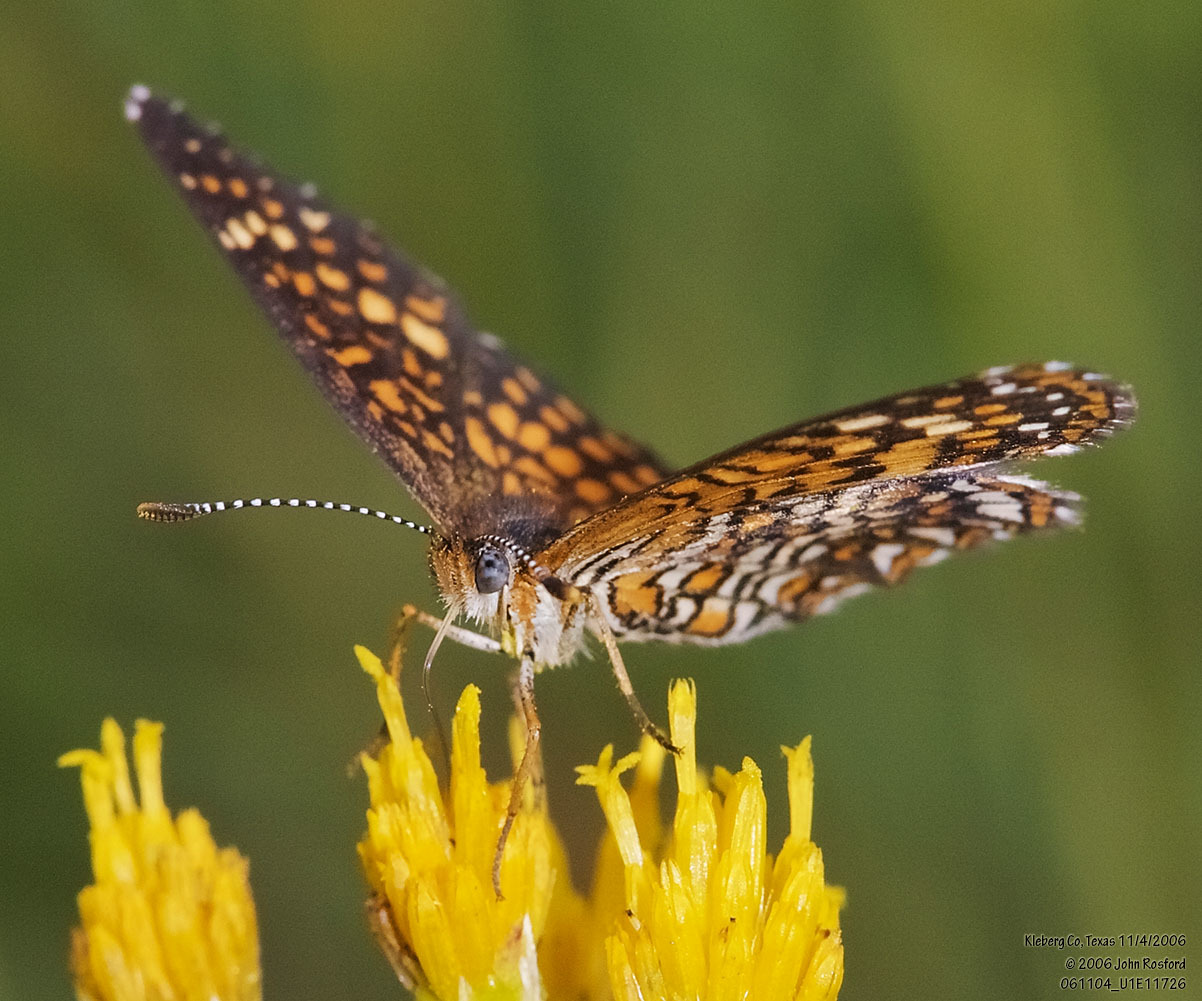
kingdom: Animalia
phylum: Arthropoda
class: Insecta
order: Lepidoptera
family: Nymphalidae
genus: Texola
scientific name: Texola elada
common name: Elada checkerspot
